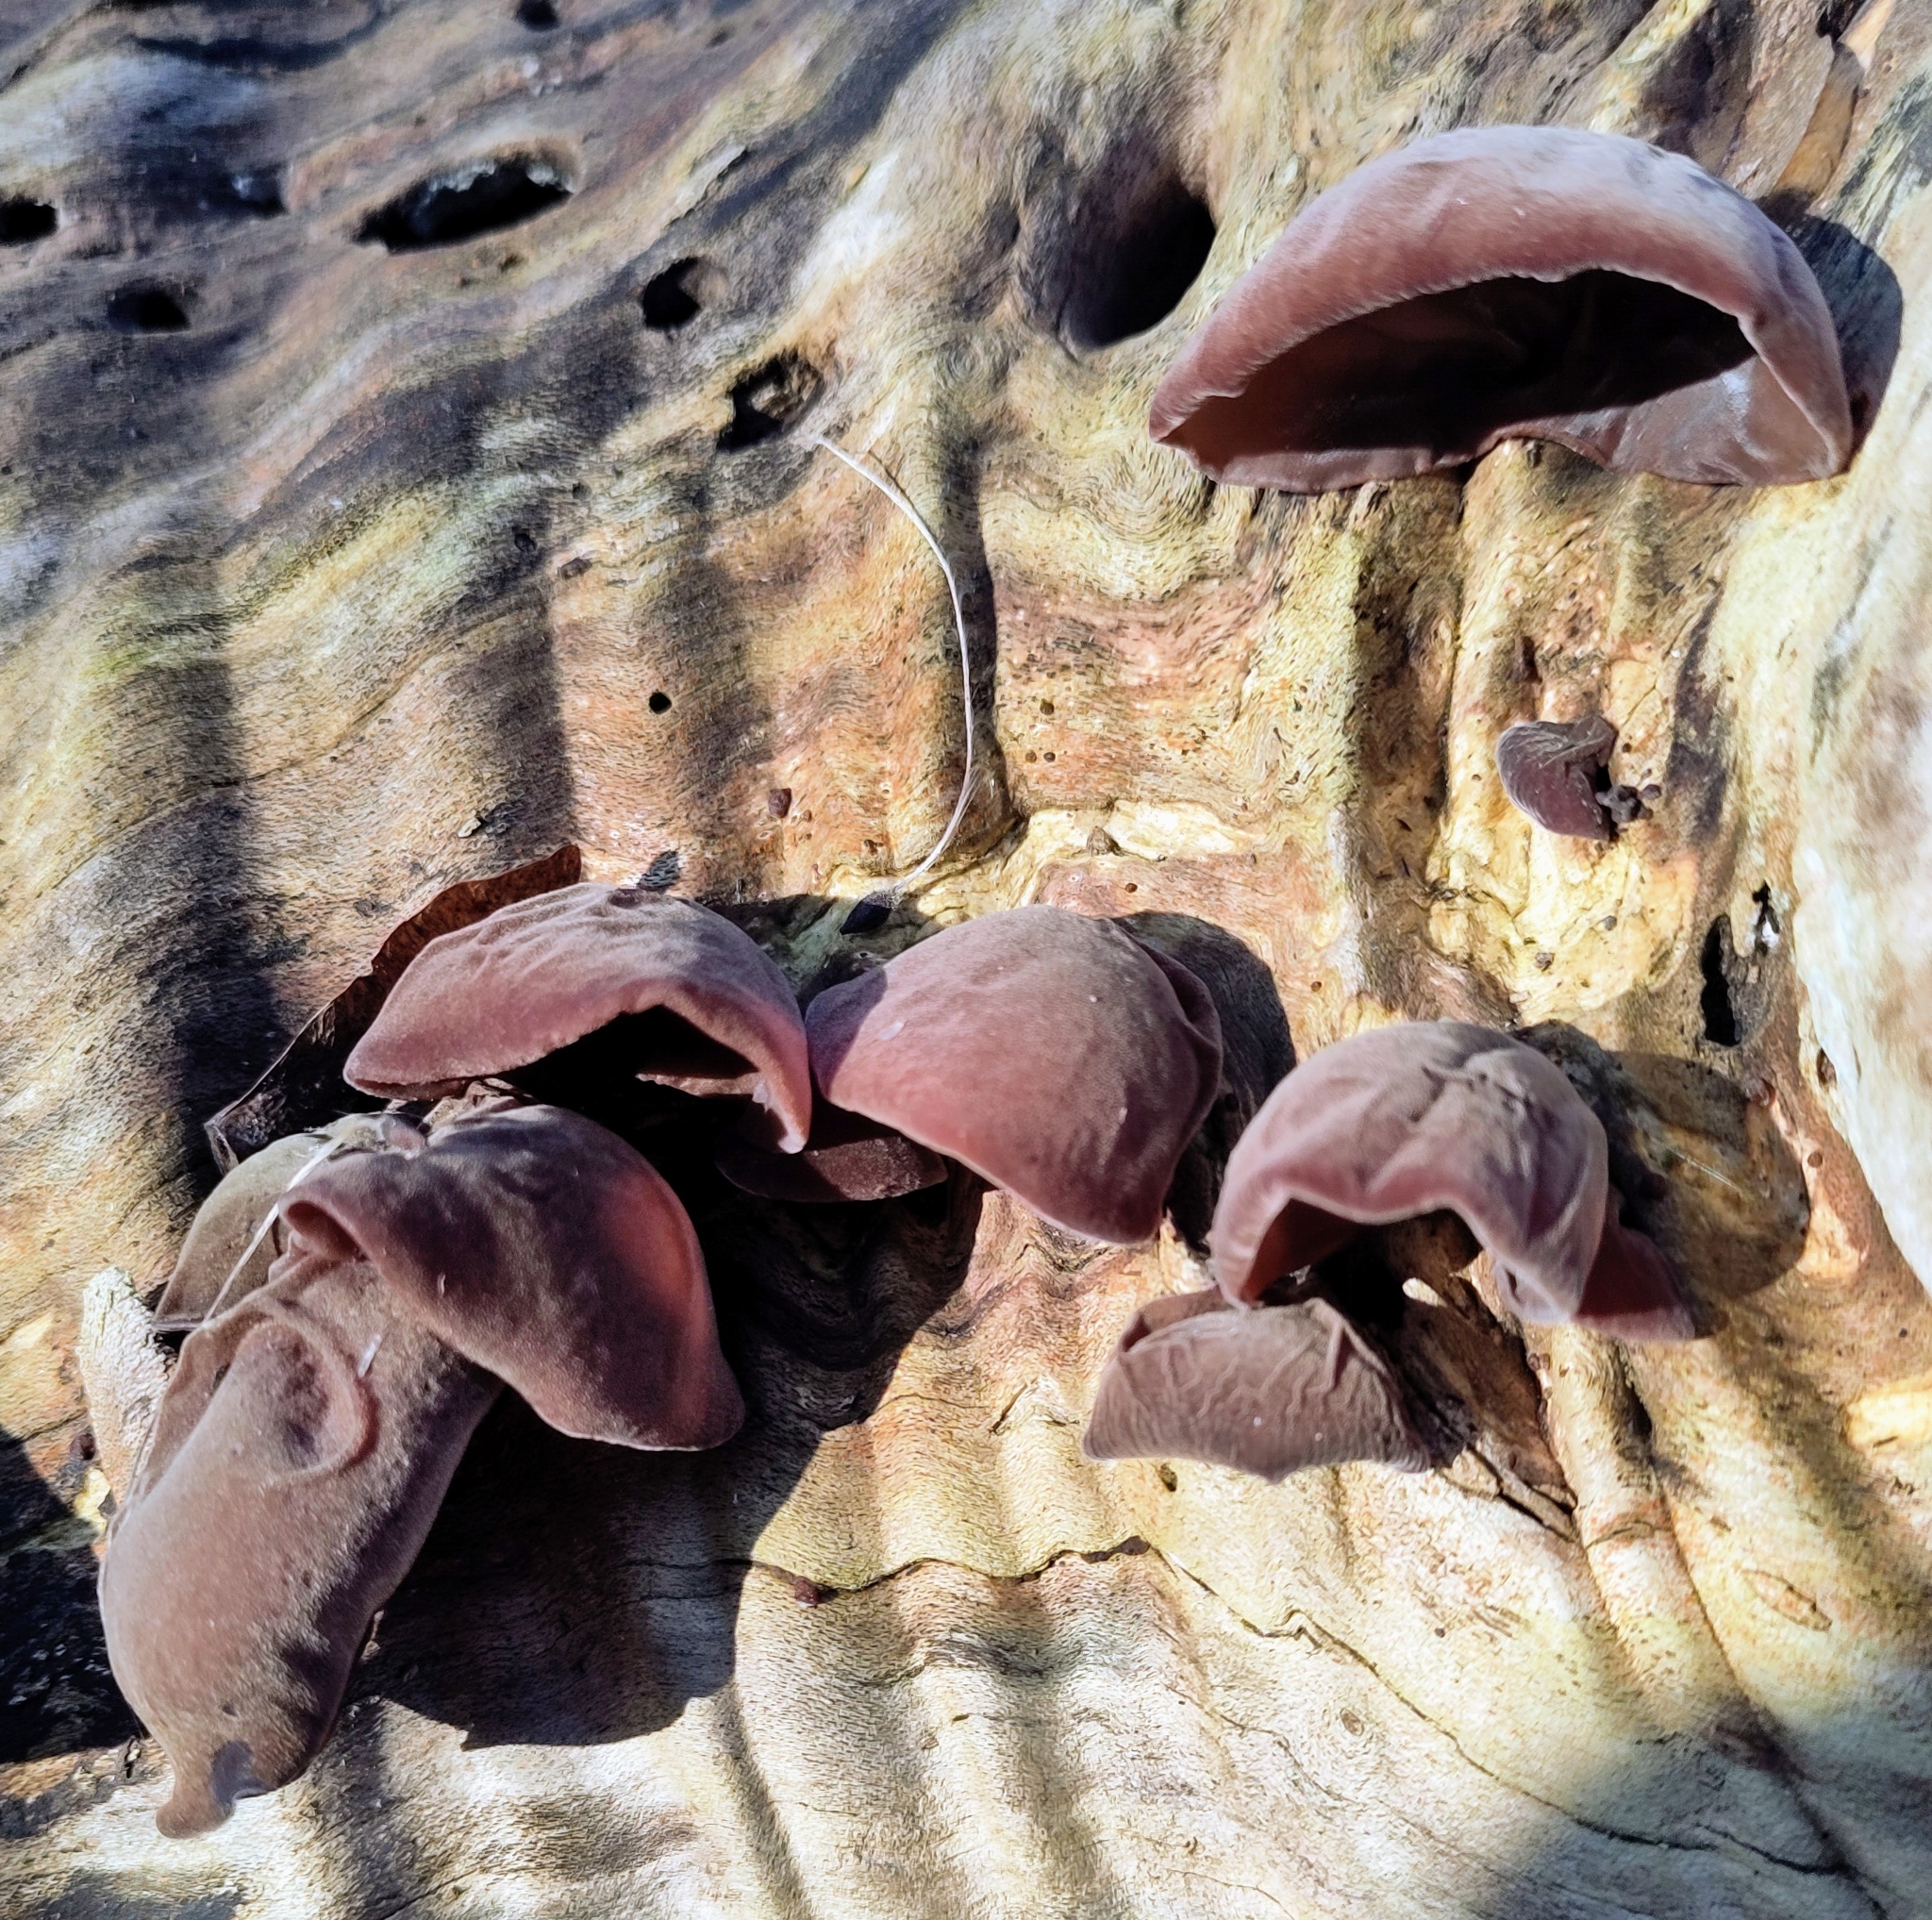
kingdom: Fungi
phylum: Basidiomycota
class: Agaricomycetes
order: Auriculariales
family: Auriculariaceae
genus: Auricularia
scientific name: Auricularia auricula-judae
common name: Jelly ear
